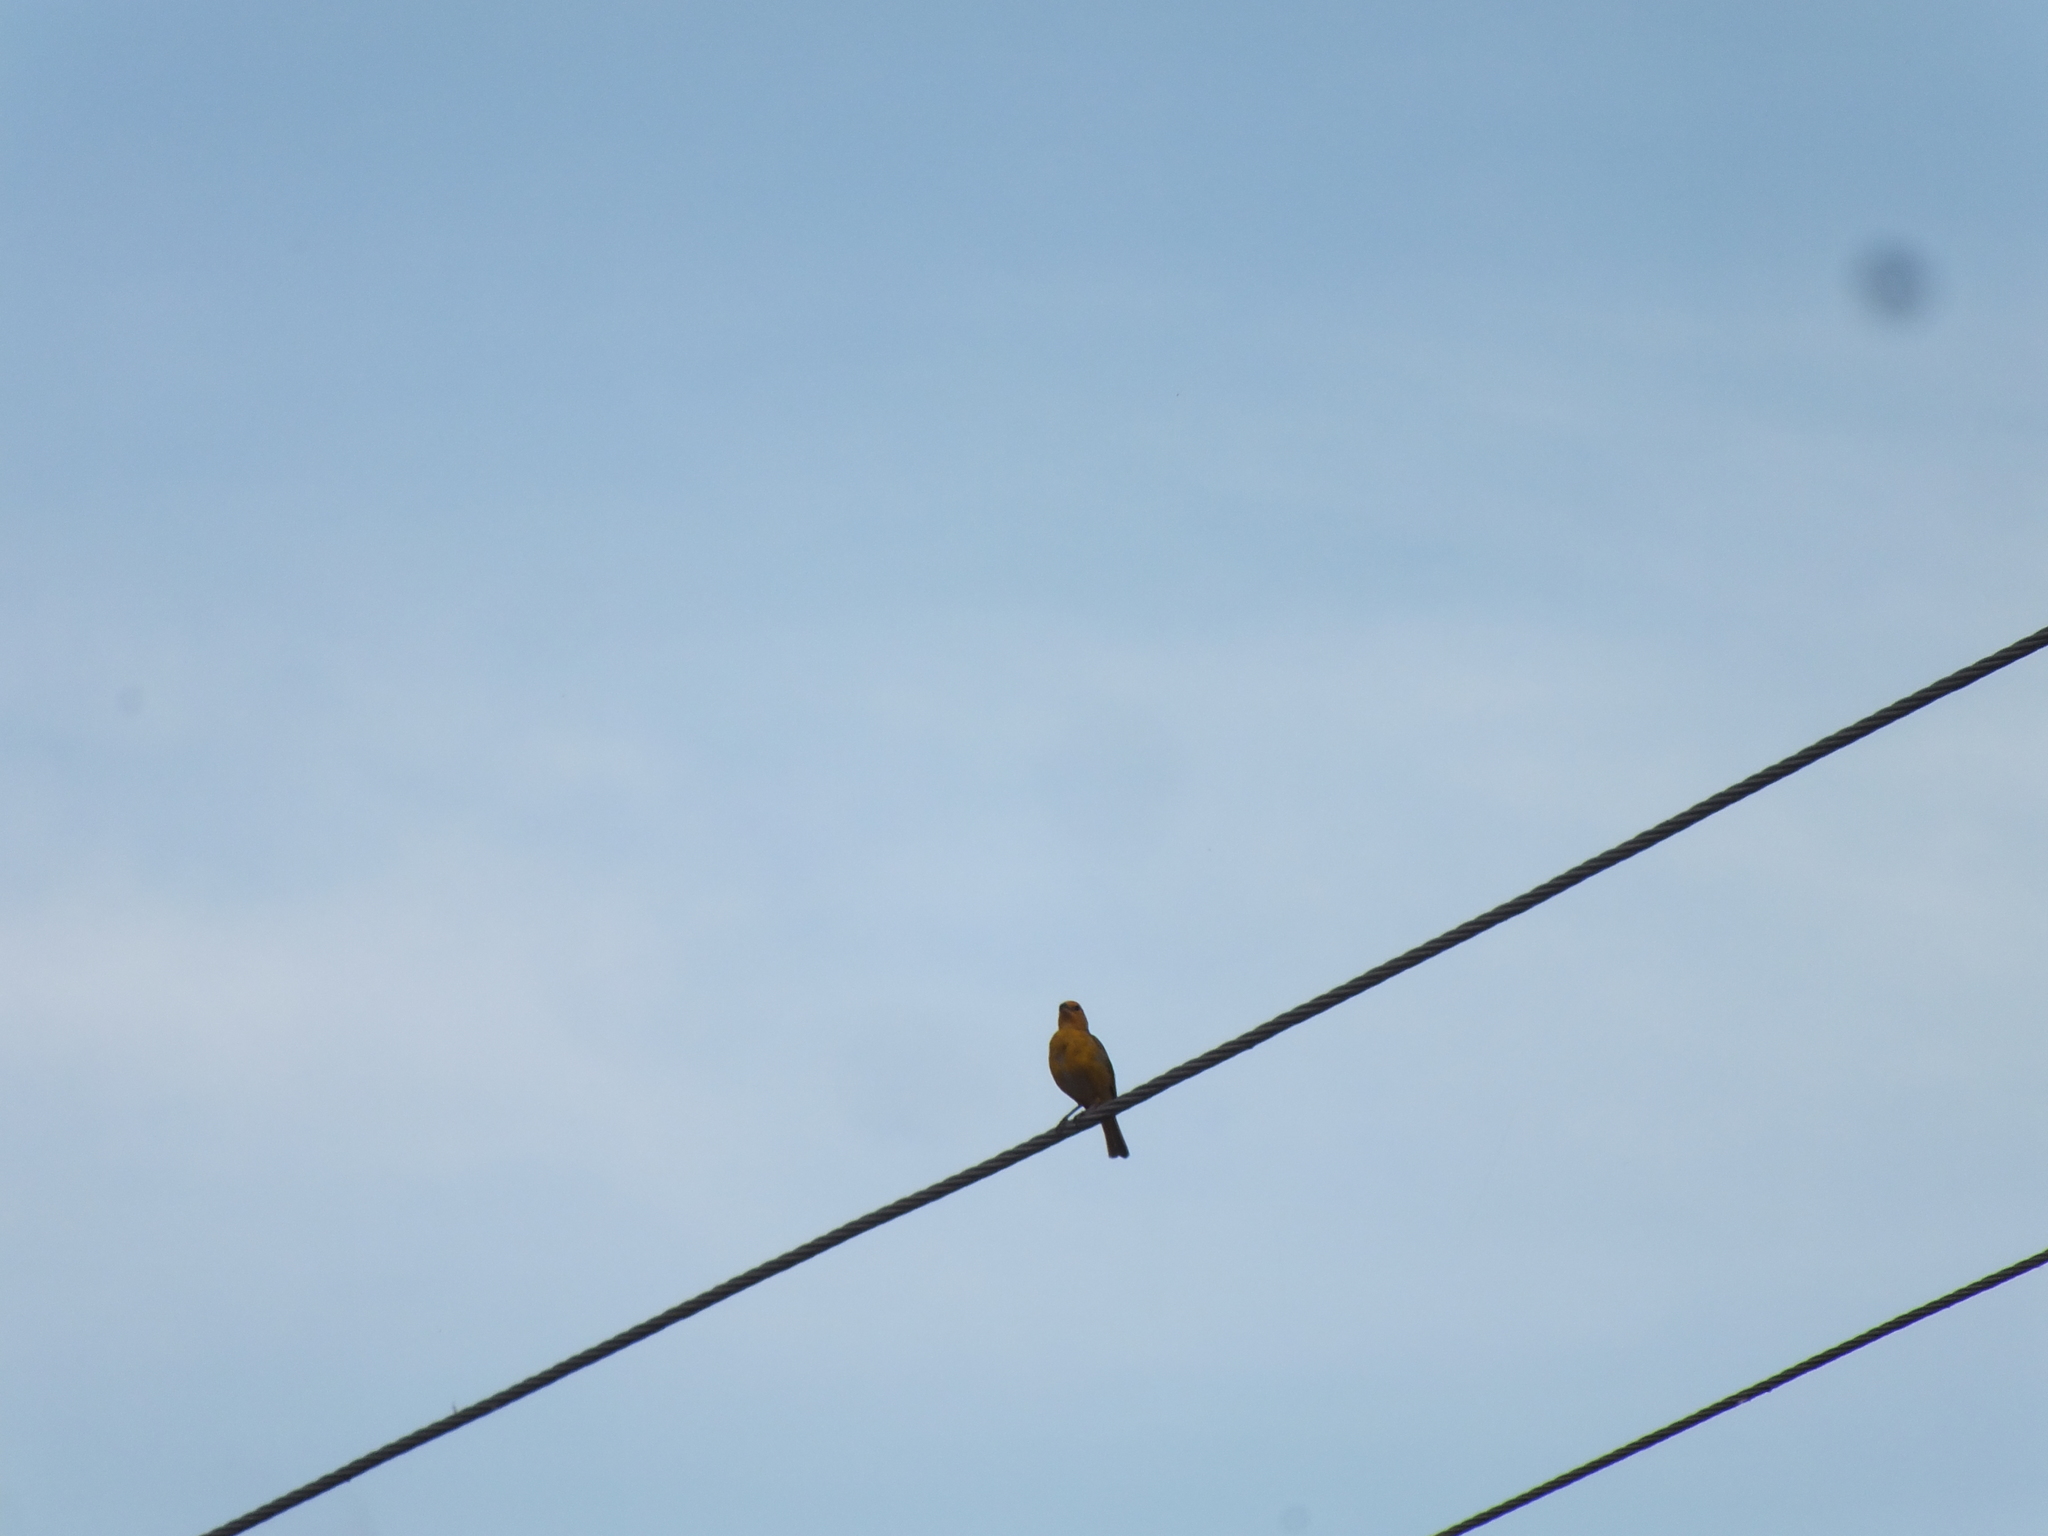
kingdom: Animalia
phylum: Chordata
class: Aves
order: Passeriformes
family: Thraupidae
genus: Sicalis
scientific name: Sicalis flaveola
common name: Saffron finch
